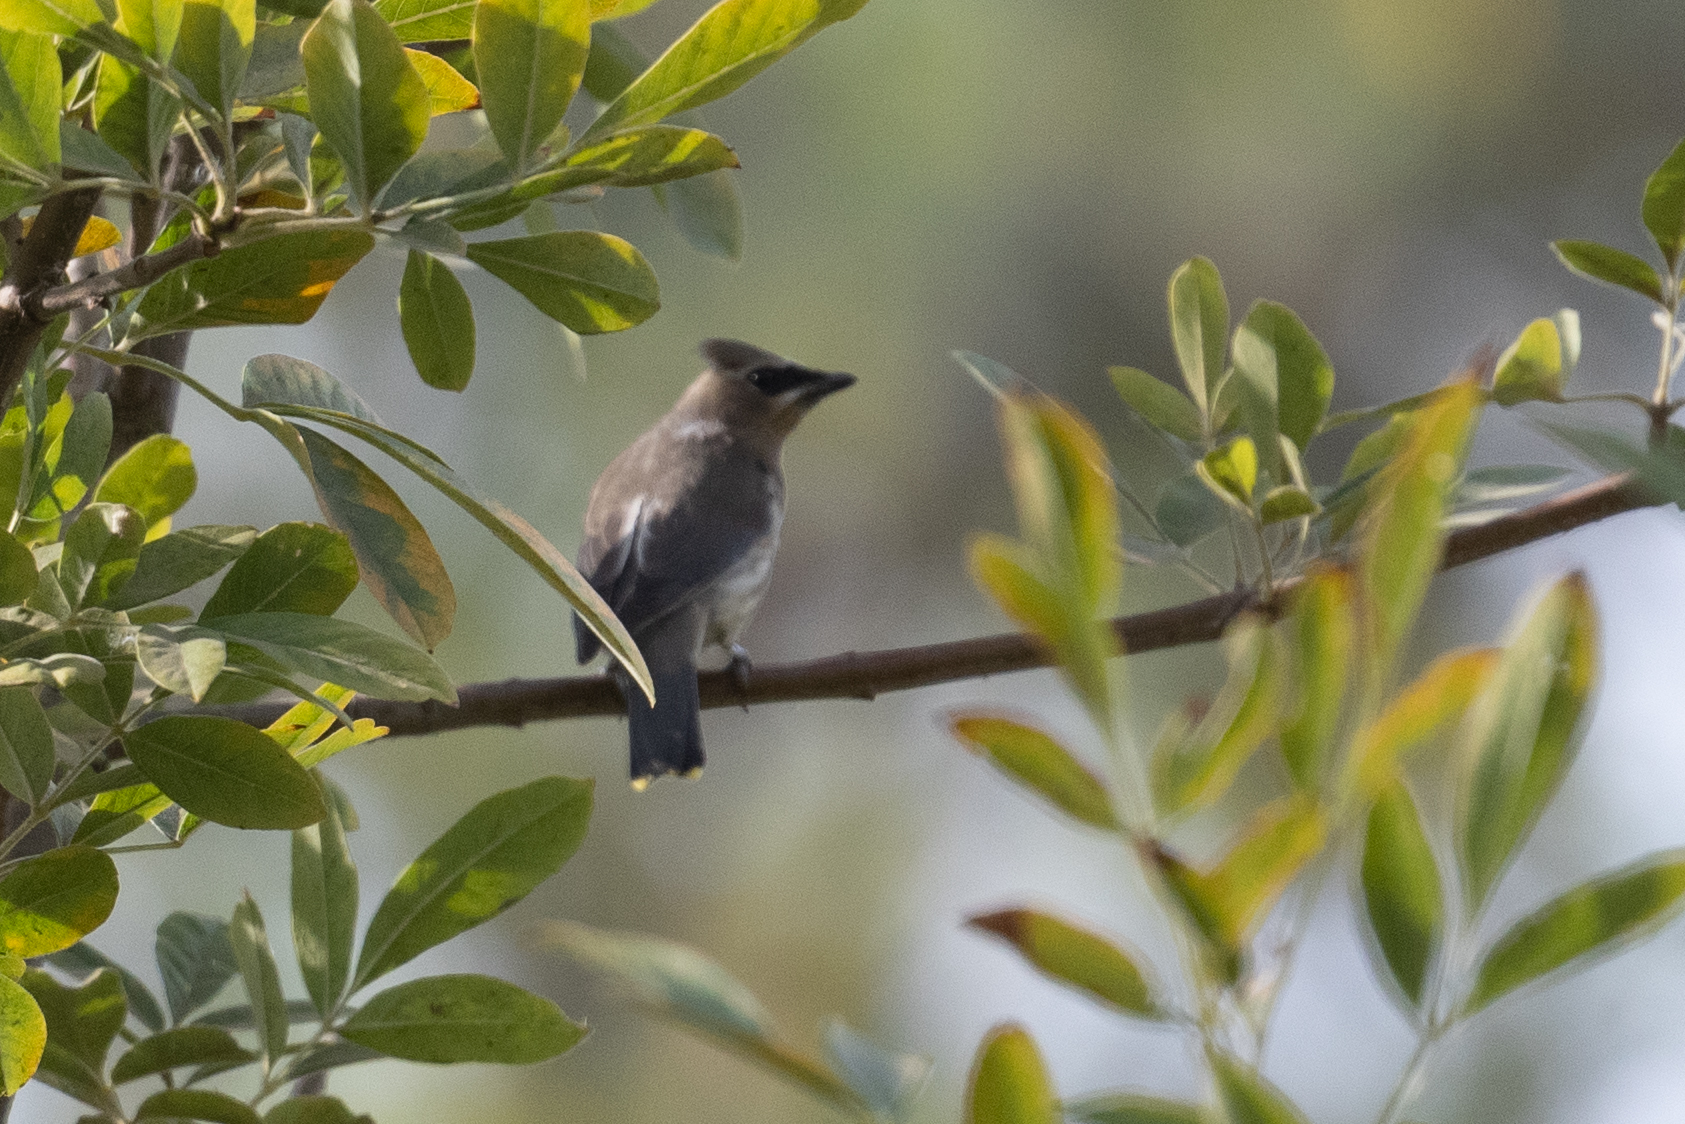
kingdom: Animalia
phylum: Chordata
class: Aves
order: Passeriformes
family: Bombycillidae
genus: Bombycilla
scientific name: Bombycilla cedrorum
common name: Cedar waxwing
